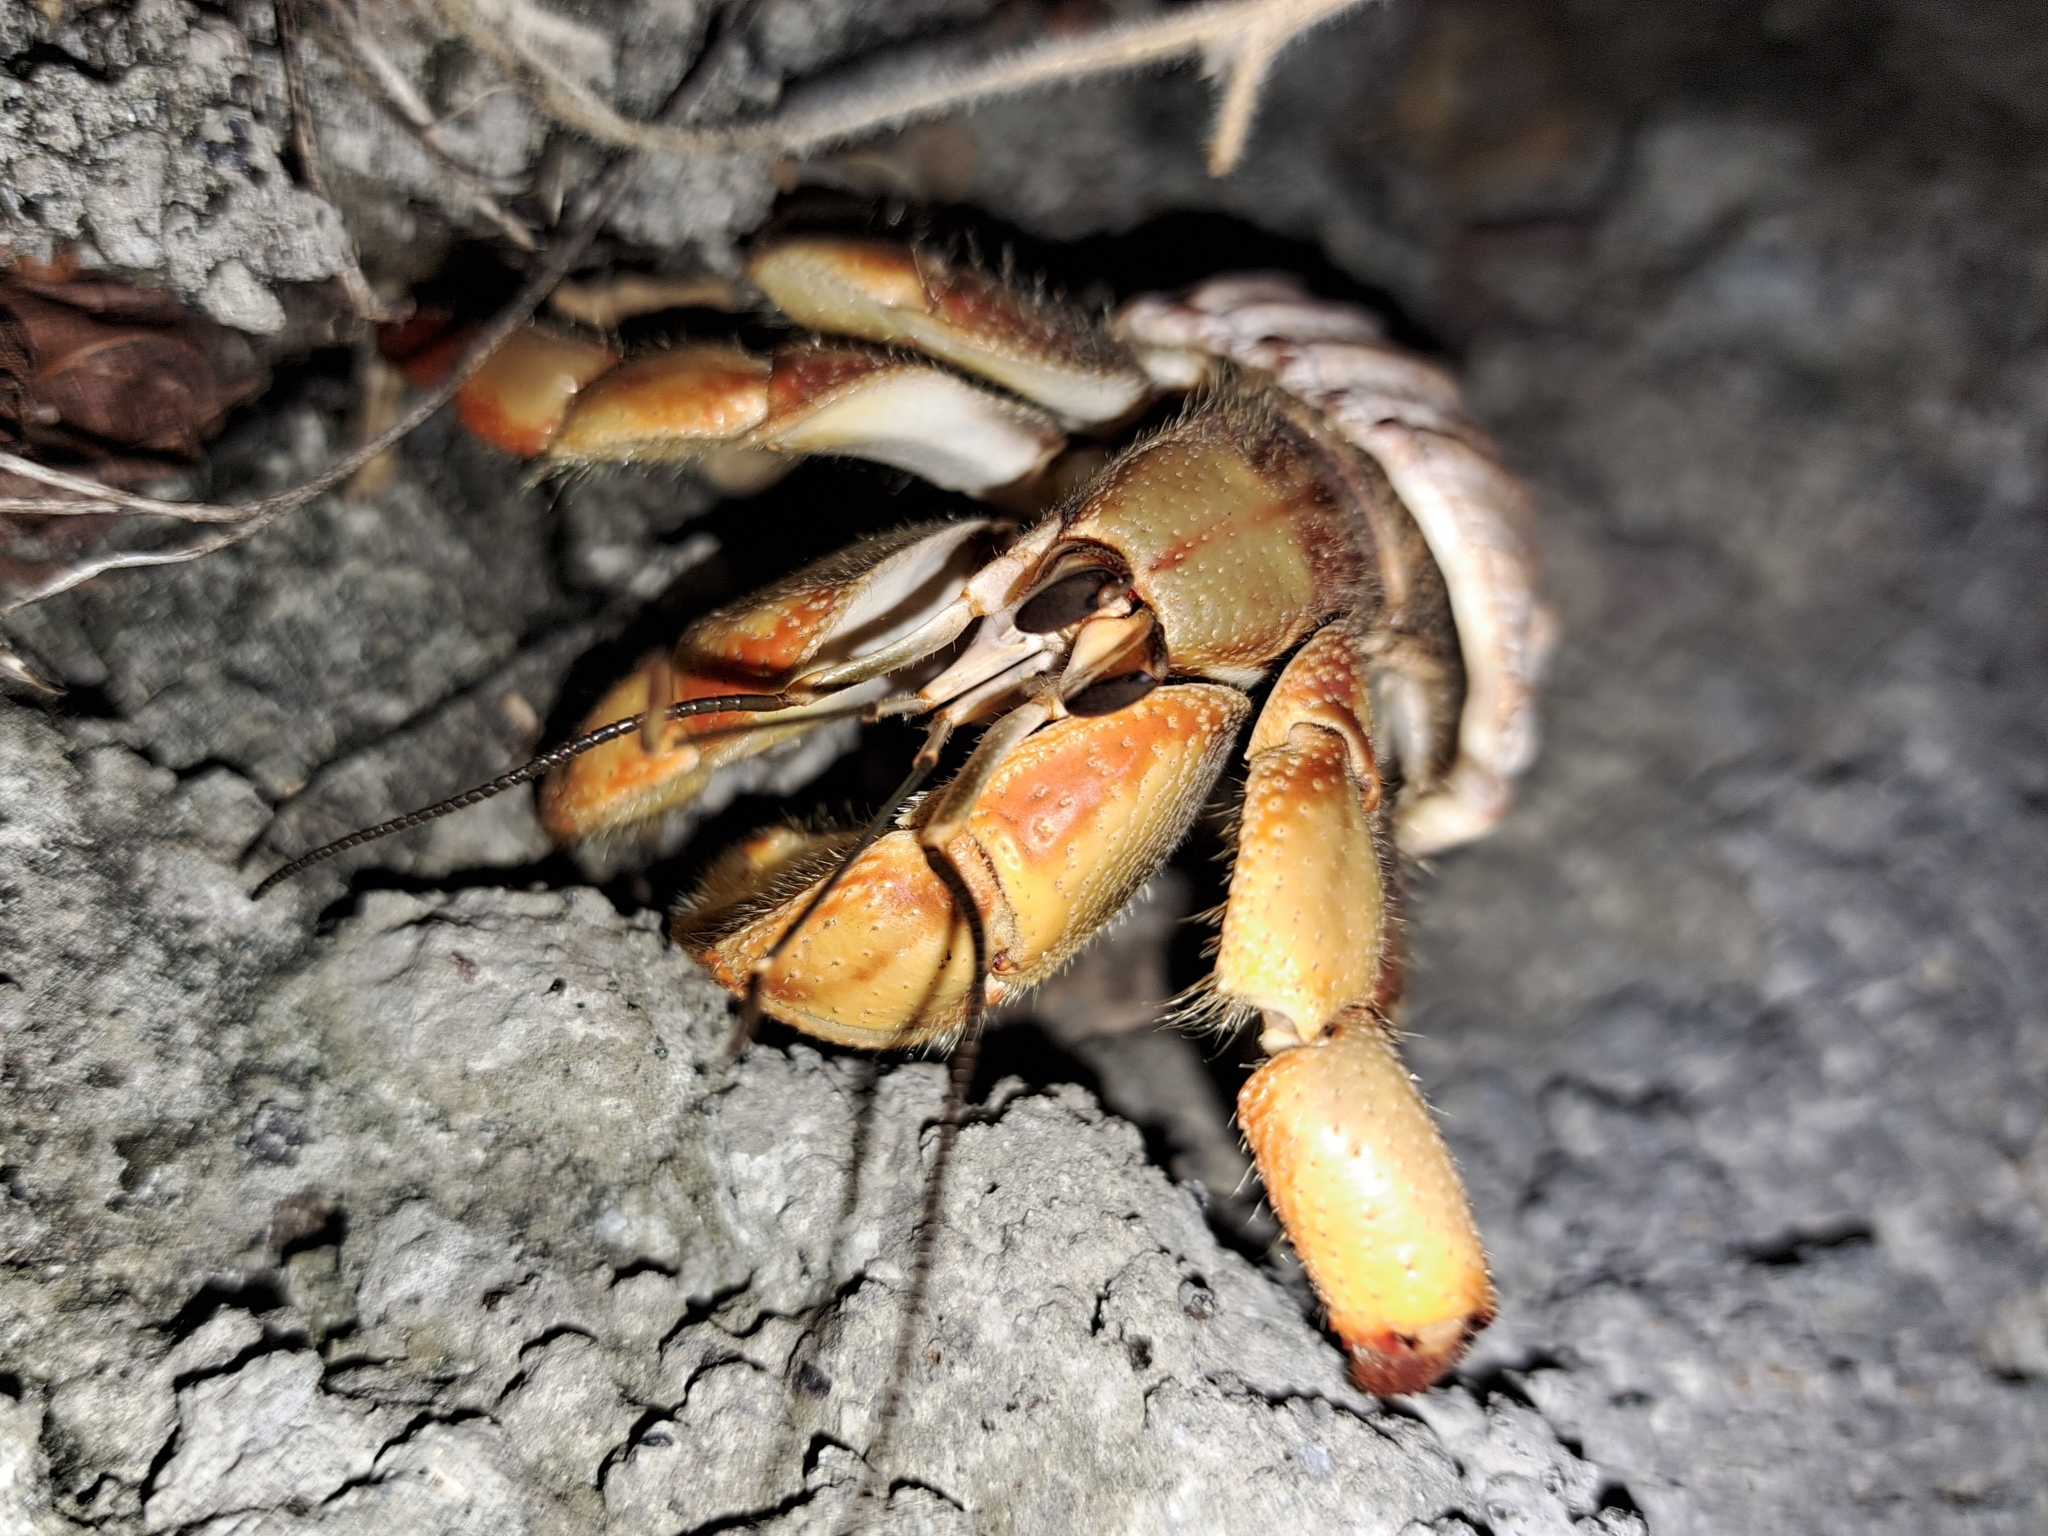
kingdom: Animalia
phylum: Arthropoda
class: Malacostraca
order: Decapoda
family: Coenobitidae
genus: Coenobita
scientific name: Coenobita compressus
